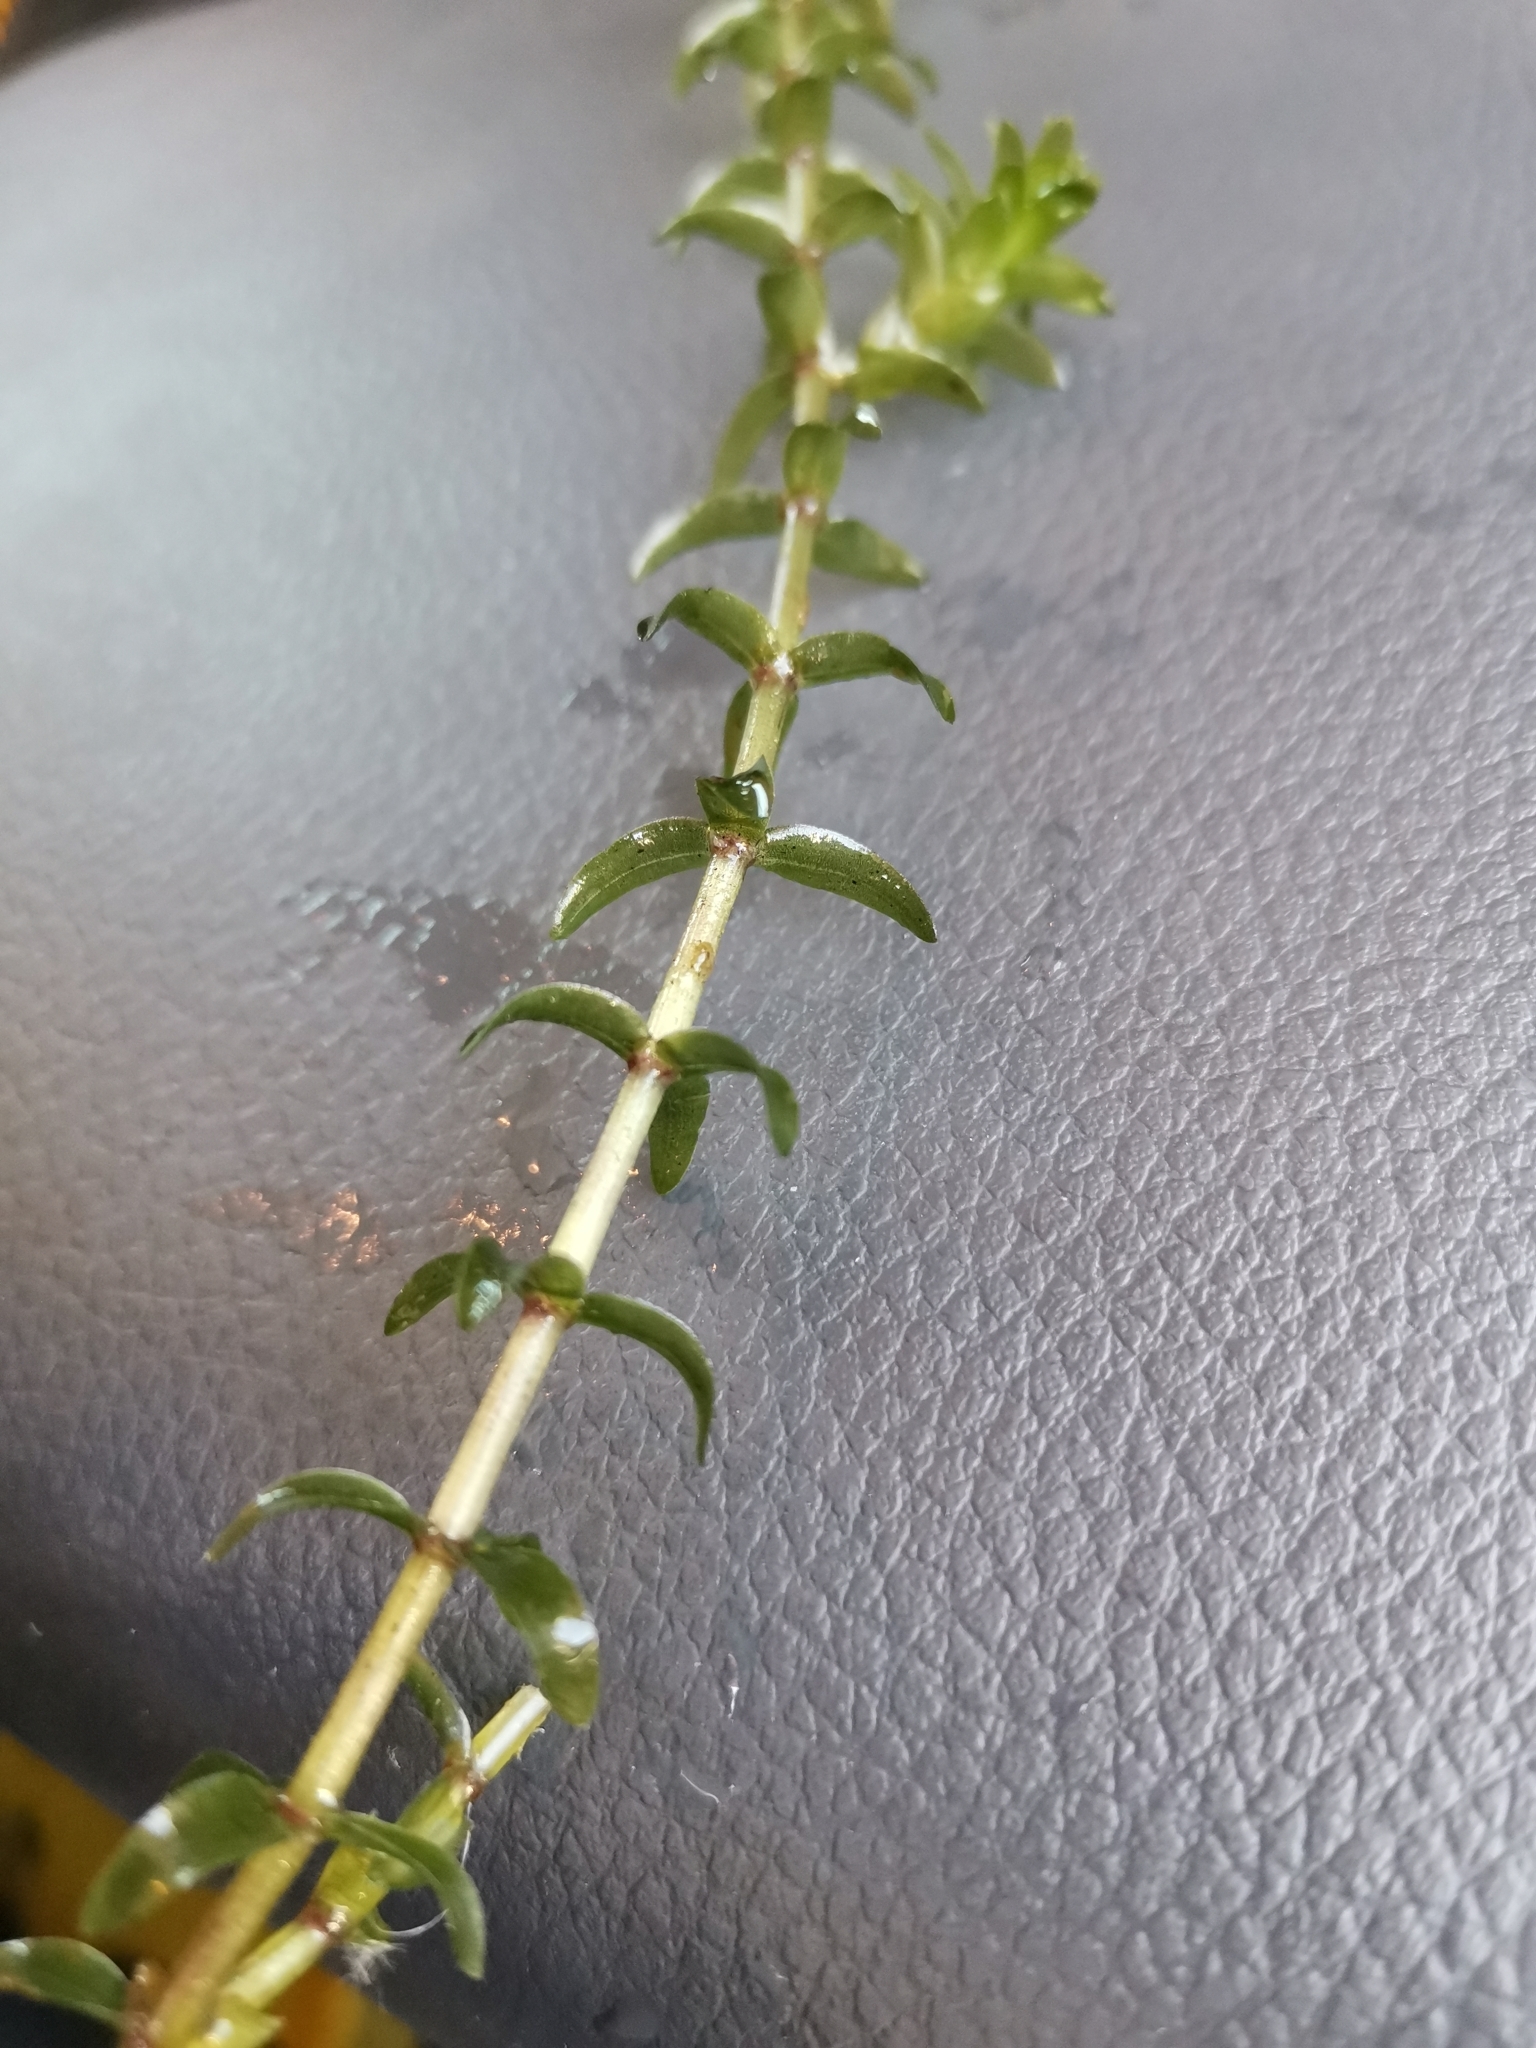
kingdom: Plantae
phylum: Tracheophyta
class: Liliopsida
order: Alismatales
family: Hydrocharitaceae
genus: Elodea
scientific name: Elodea canadensis
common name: Canadian waterweed
